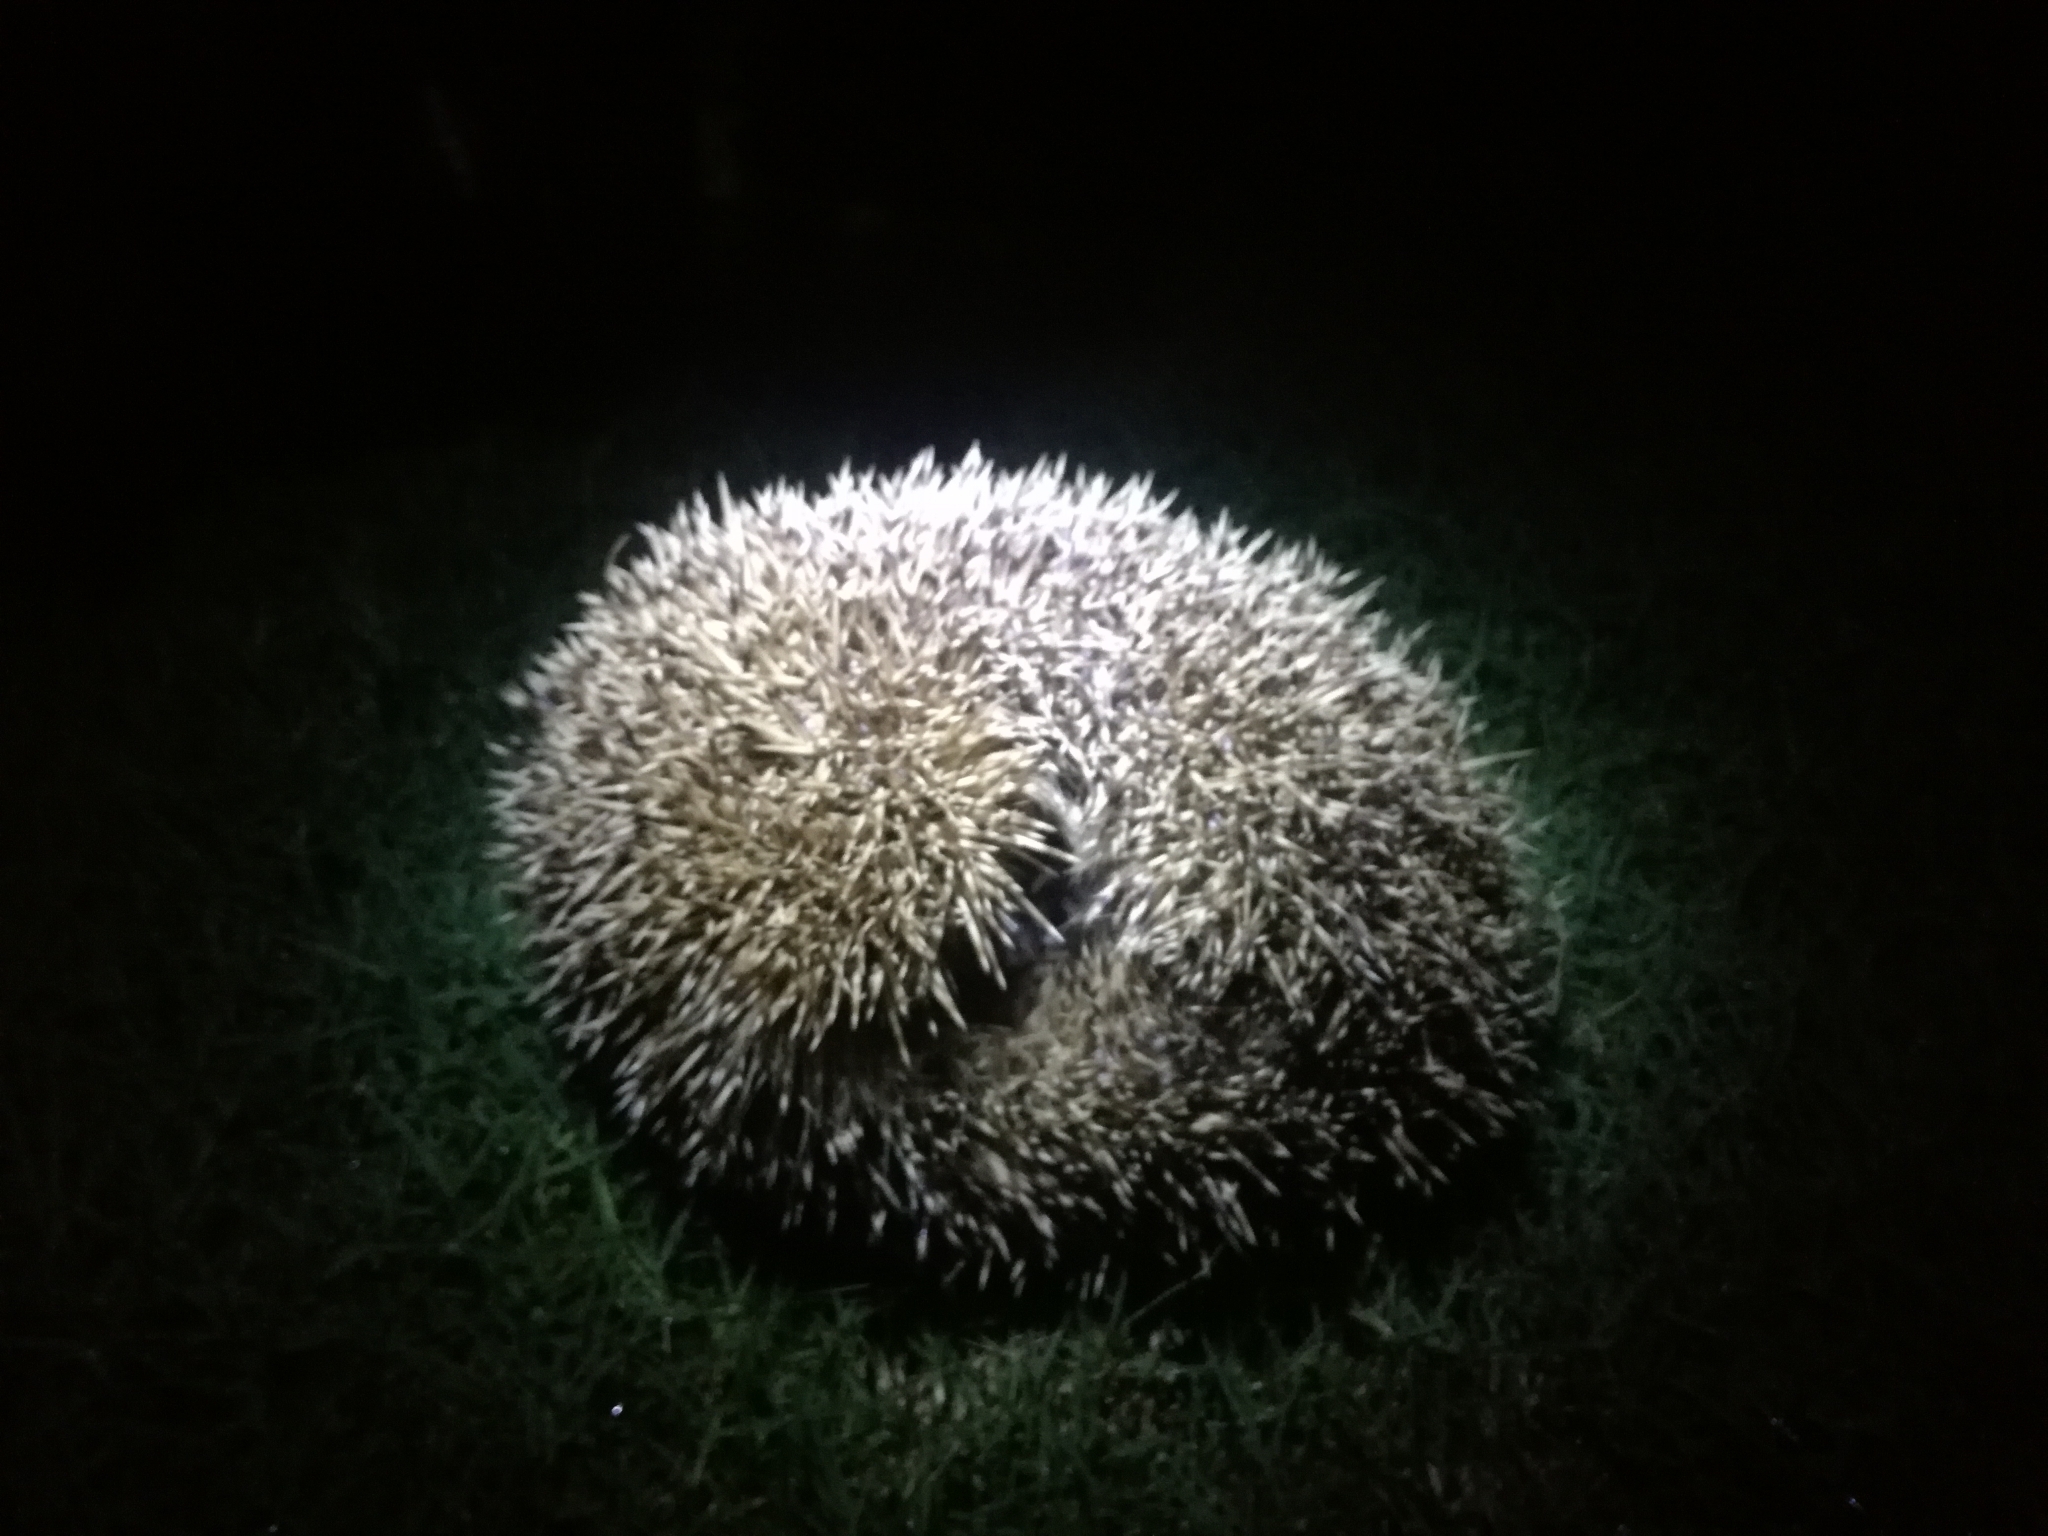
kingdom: Animalia
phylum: Chordata
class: Mammalia
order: Erinaceomorpha
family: Erinaceidae
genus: Erinaceus
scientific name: Erinaceus europaeus
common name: West european hedgehog
